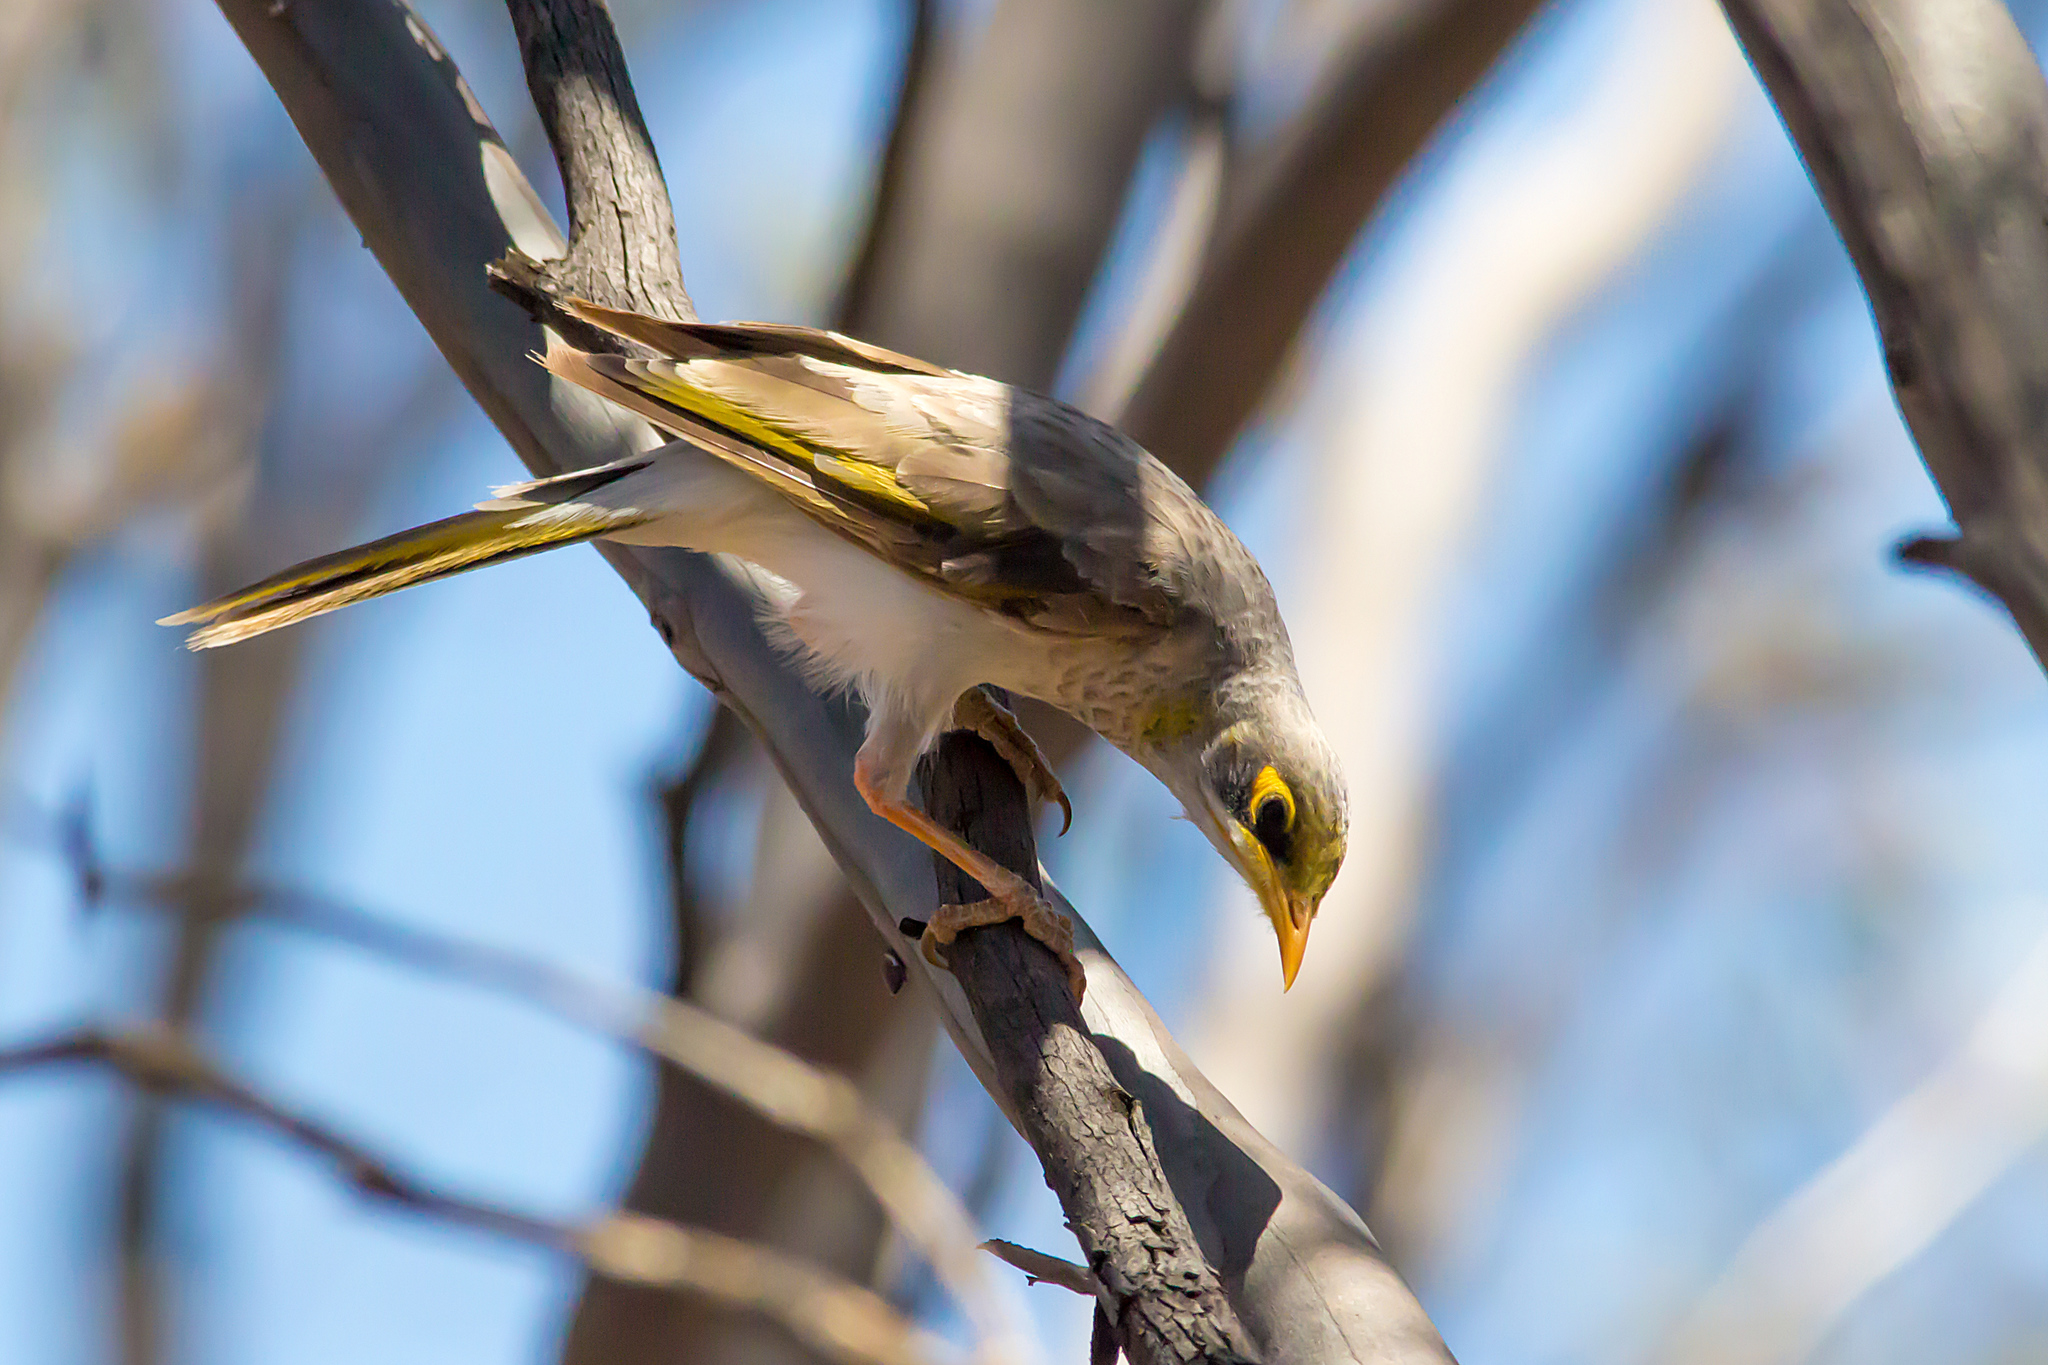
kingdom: Animalia
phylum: Chordata
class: Aves
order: Passeriformes
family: Meliphagidae
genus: Manorina
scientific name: Manorina flavigula
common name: Yellow-throated miner
